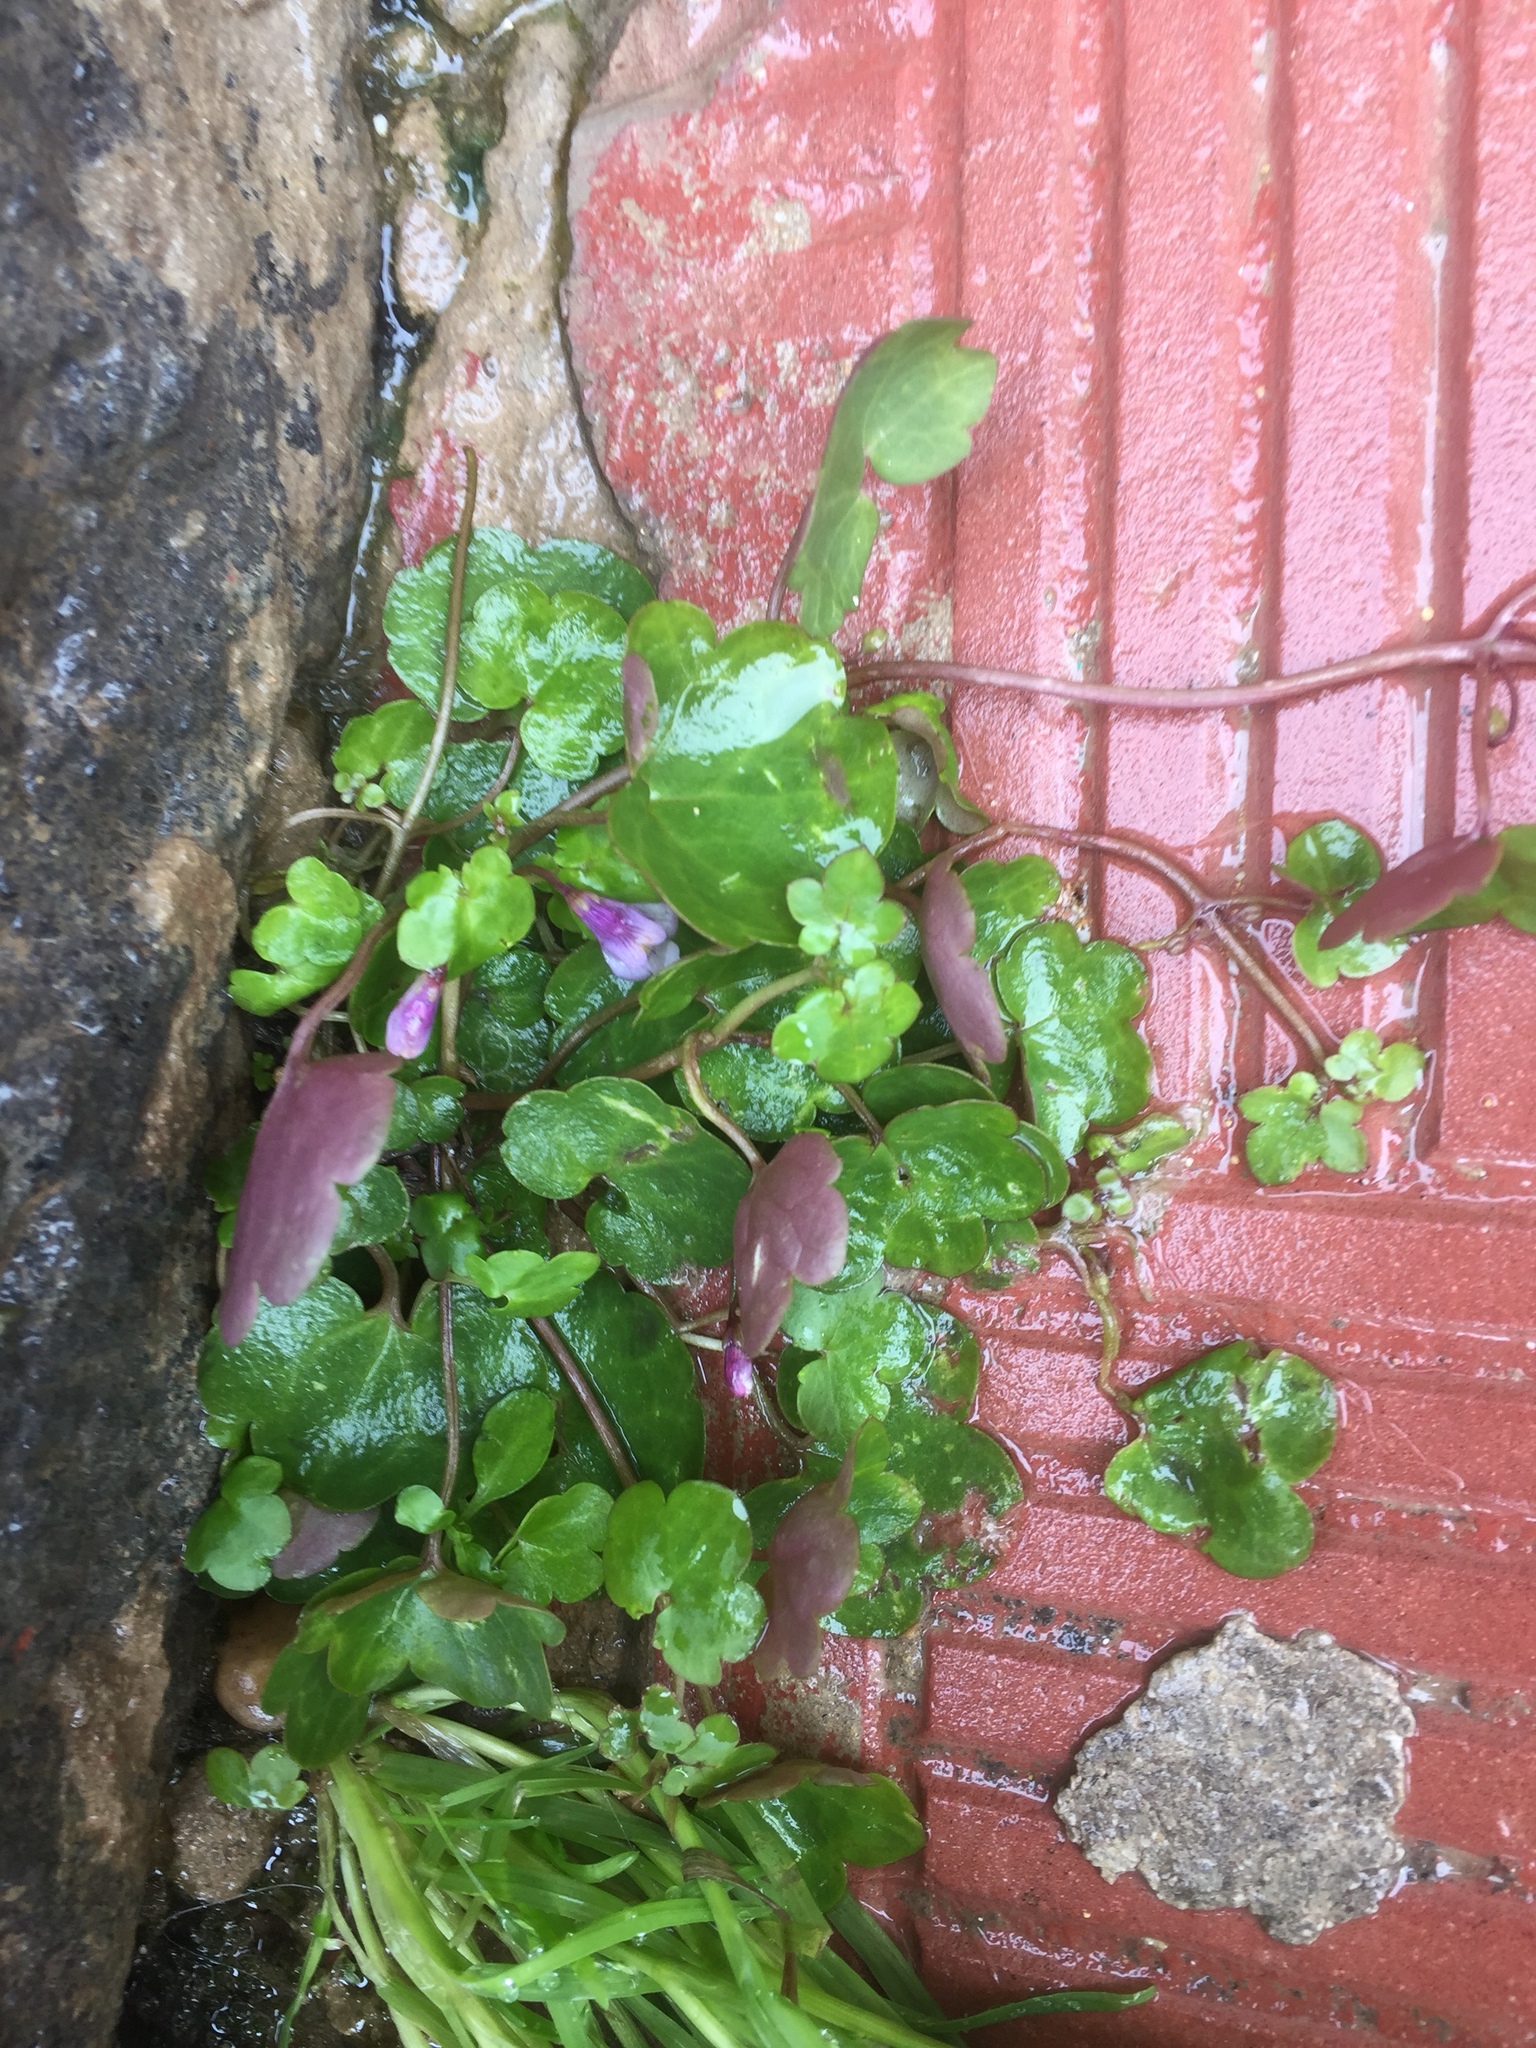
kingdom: Plantae
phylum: Tracheophyta
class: Magnoliopsida
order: Lamiales
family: Plantaginaceae
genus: Cymbalaria
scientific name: Cymbalaria muralis
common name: Ivy-leaved toadflax
